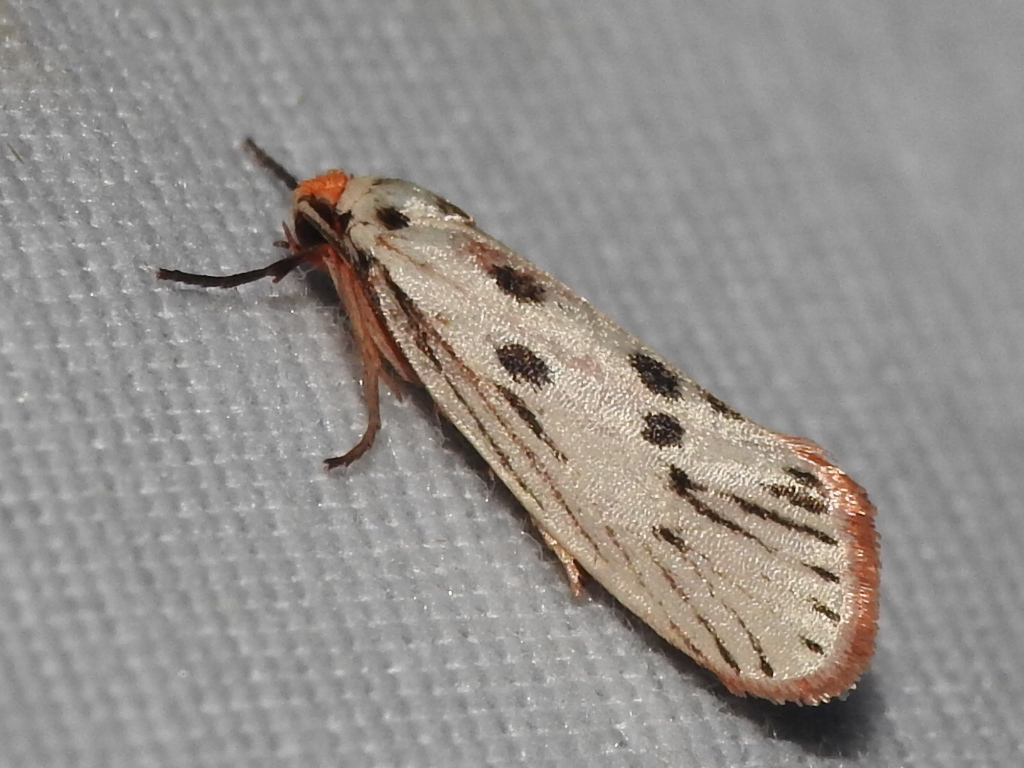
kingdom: Animalia
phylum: Arthropoda
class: Insecta
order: Lepidoptera
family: Lacturidae
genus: Lactura
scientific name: Lactura
